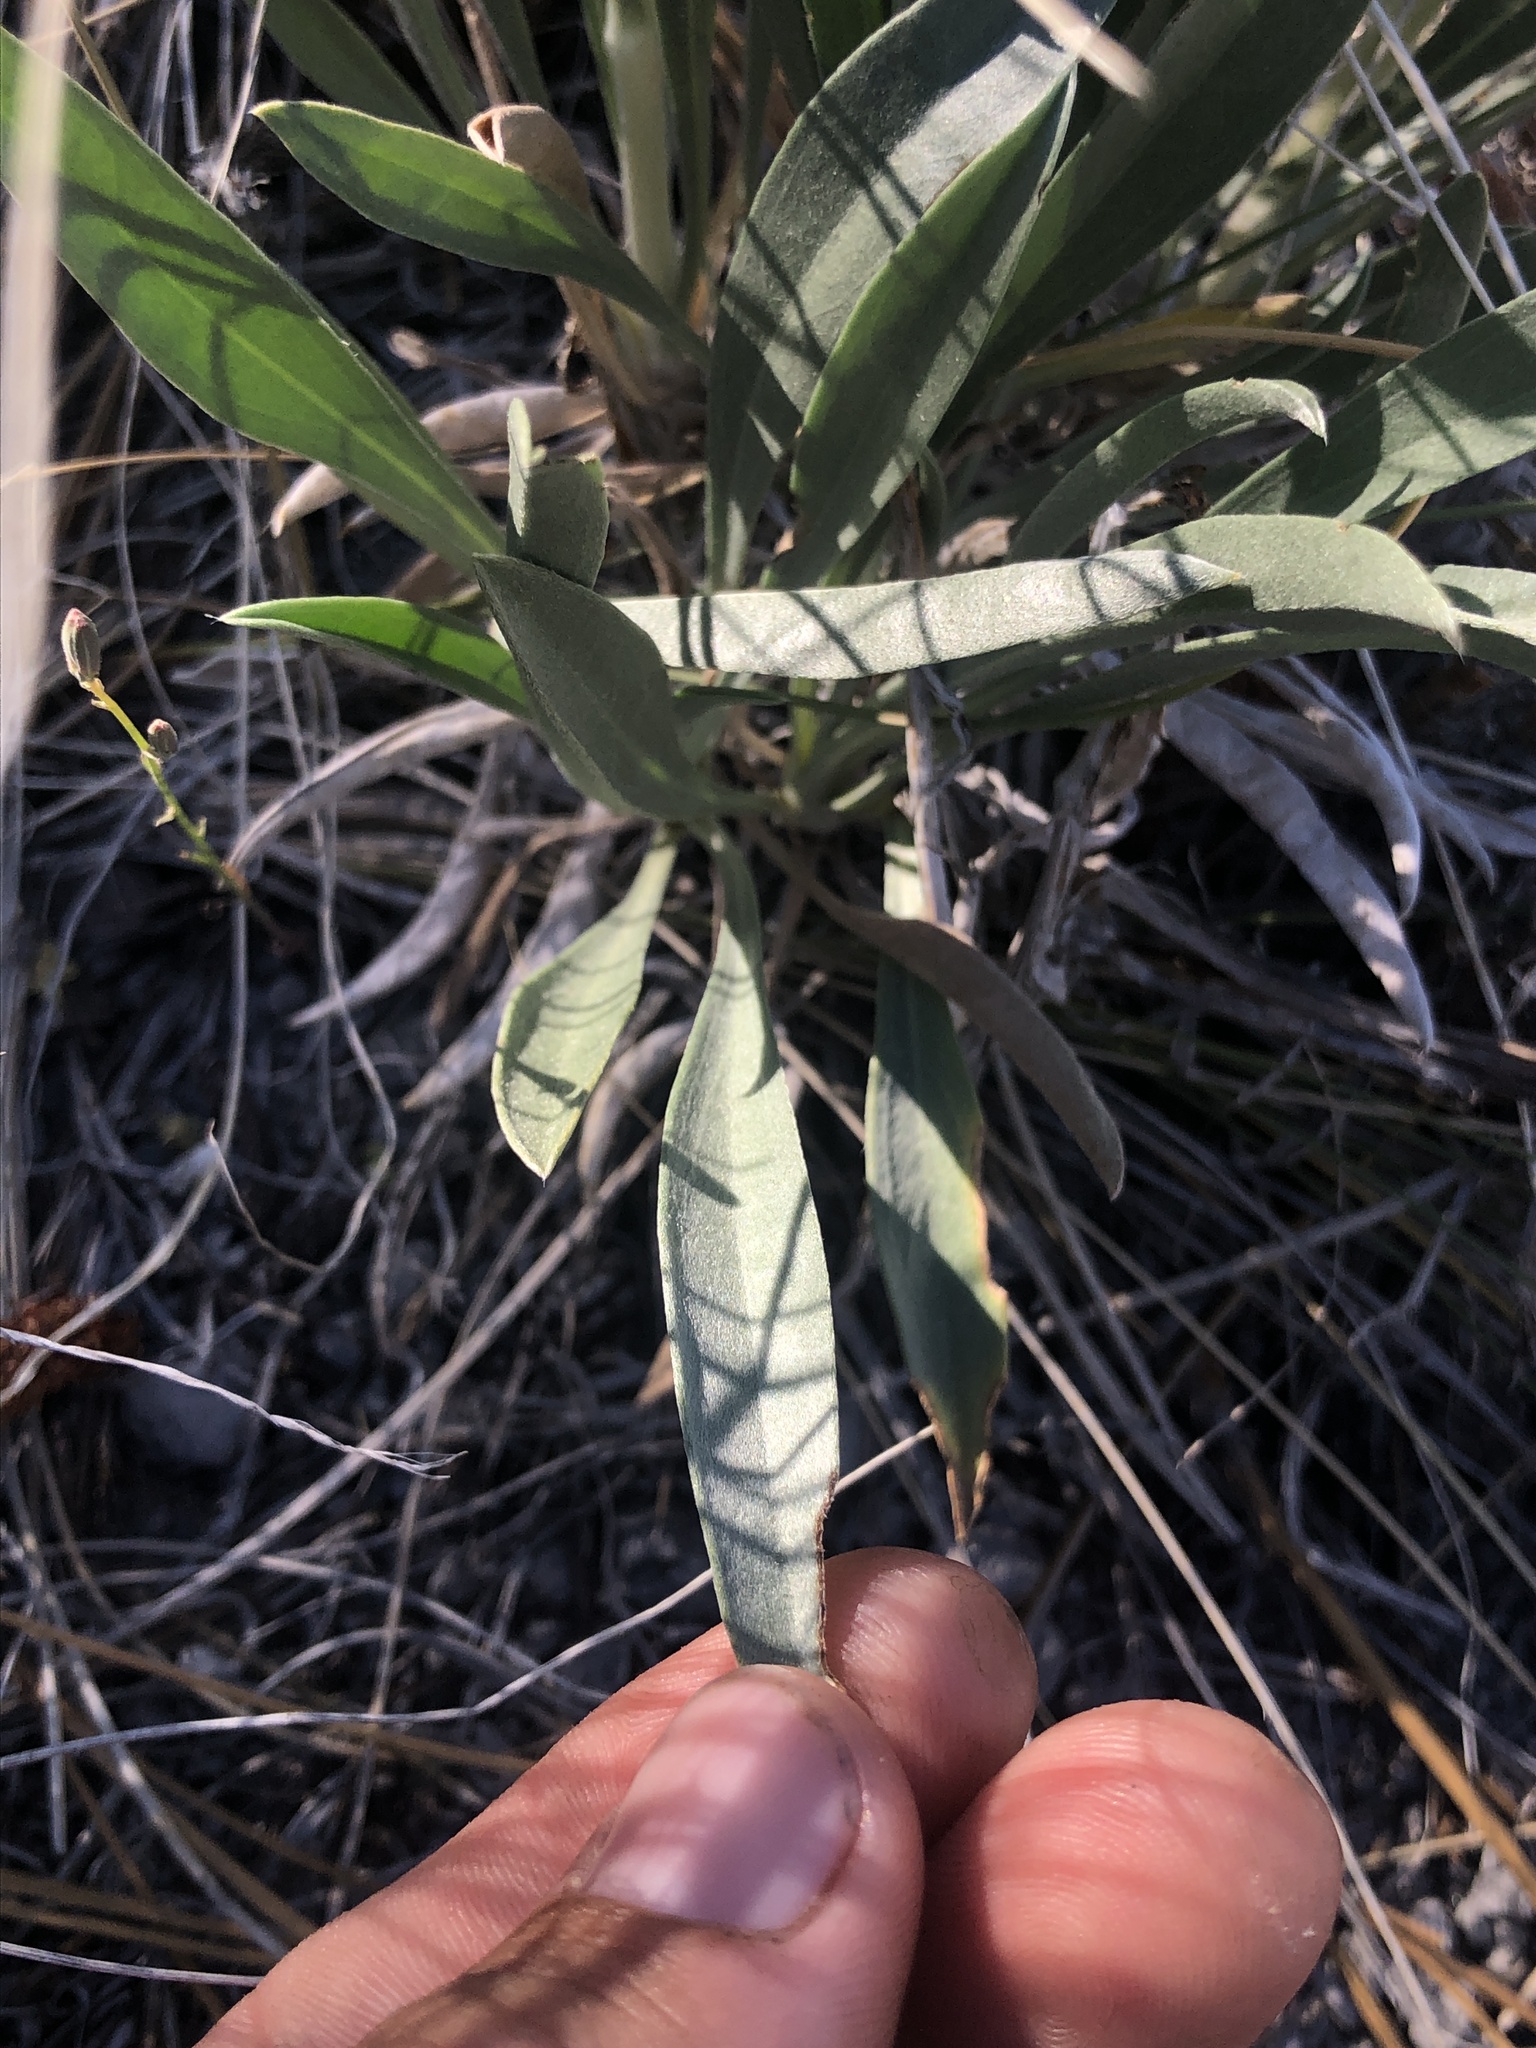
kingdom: Plantae
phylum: Tracheophyta
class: Magnoliopsida
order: Boraginales
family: Boraginaceae
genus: Oreocarya
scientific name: Oreocarya confertiflora
